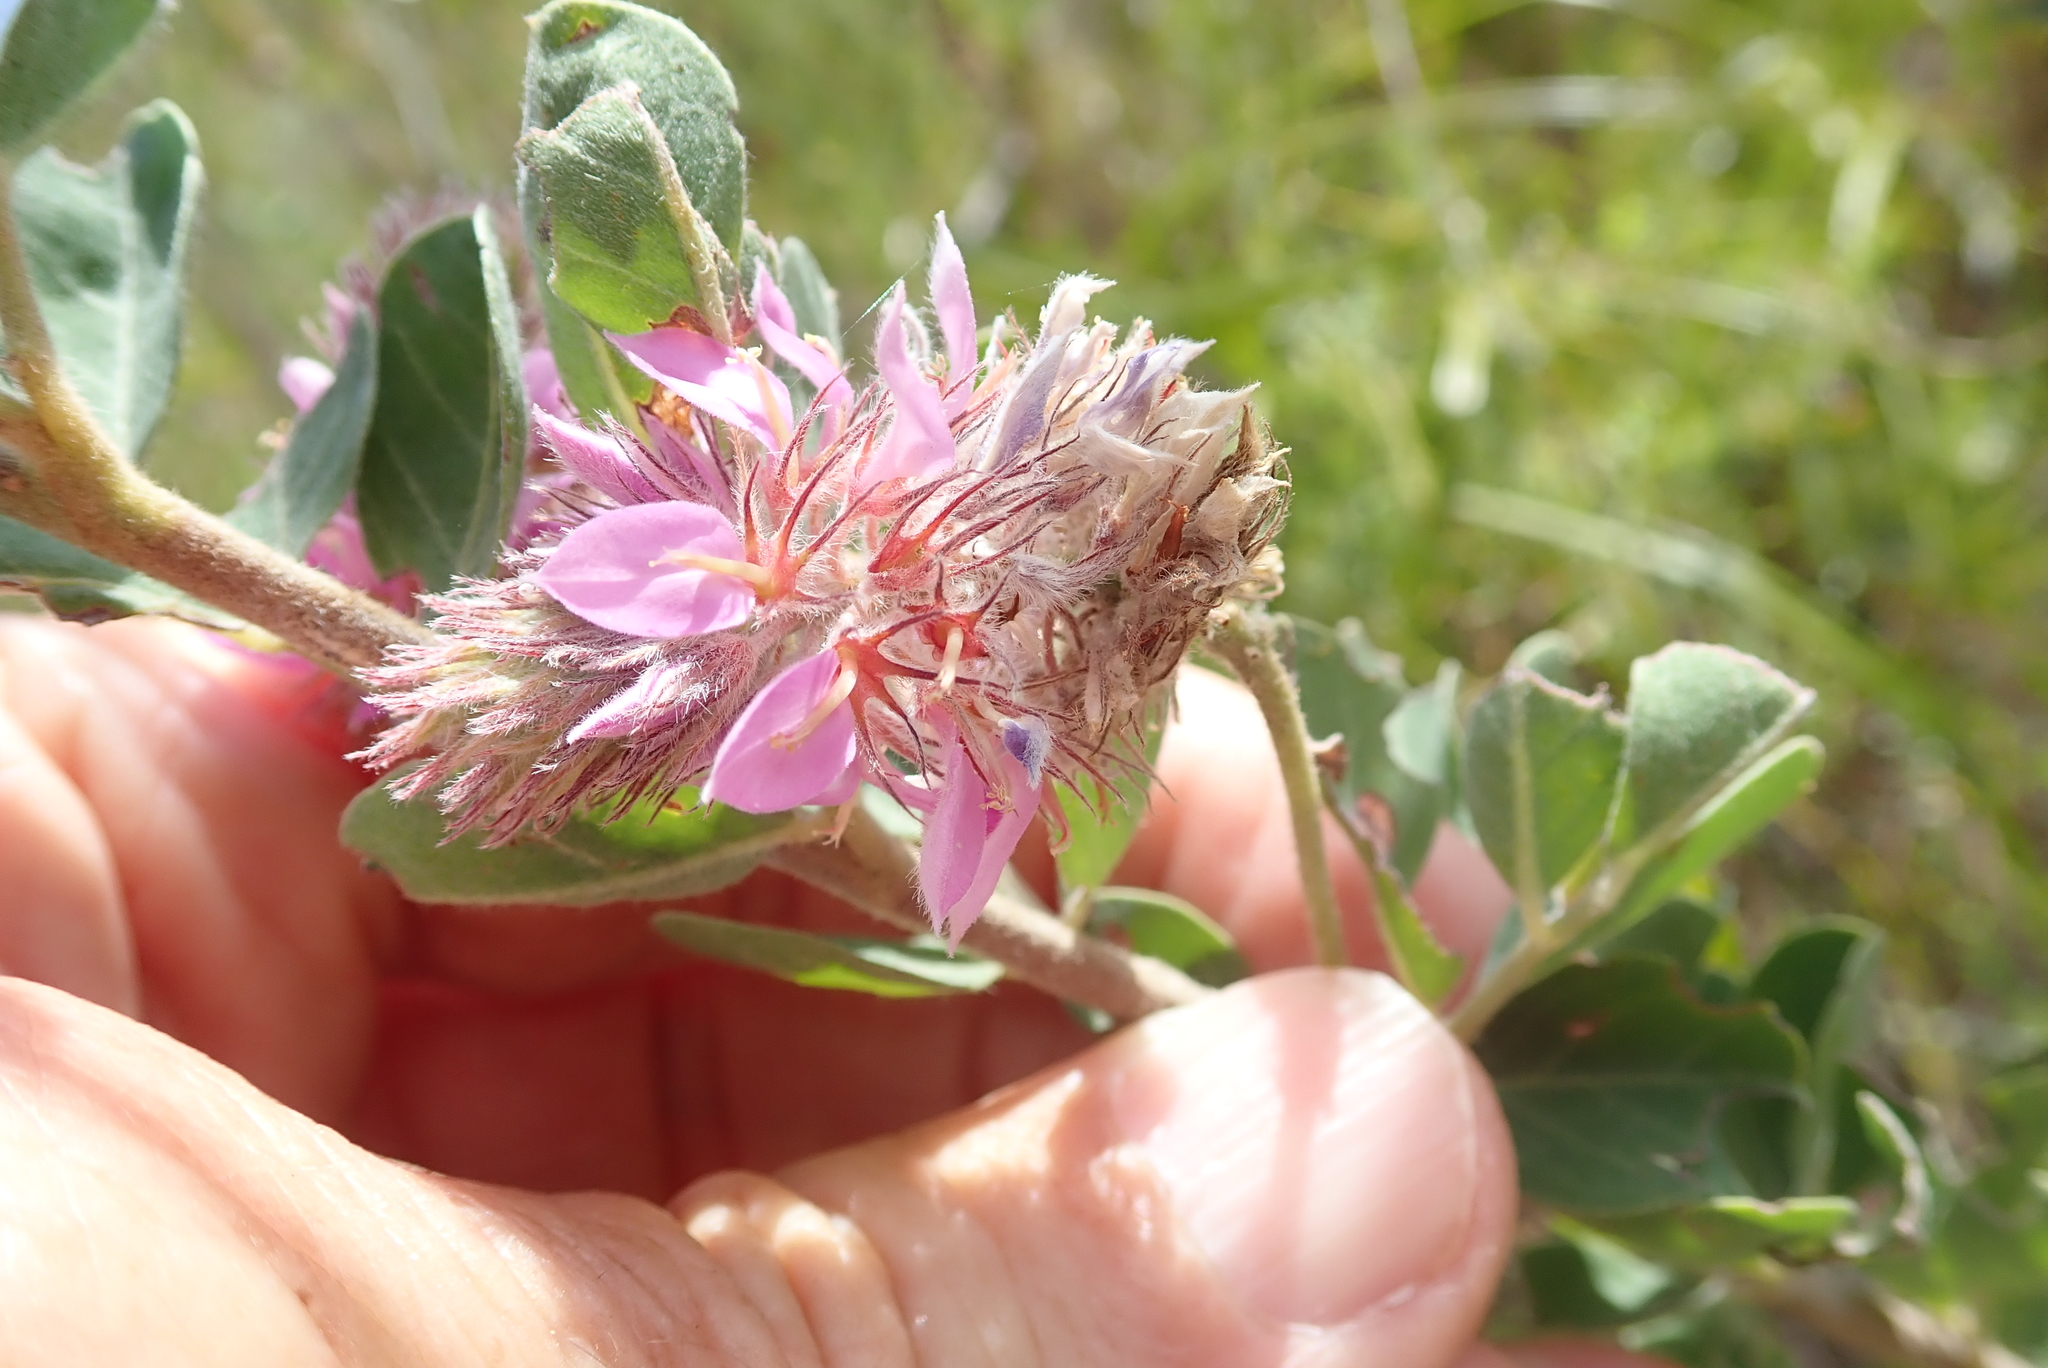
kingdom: Plantae
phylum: Tracheophyta
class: Magnoliopsida
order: Fabales
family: Fabaceae
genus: Indigofera
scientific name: Indigofera superba
